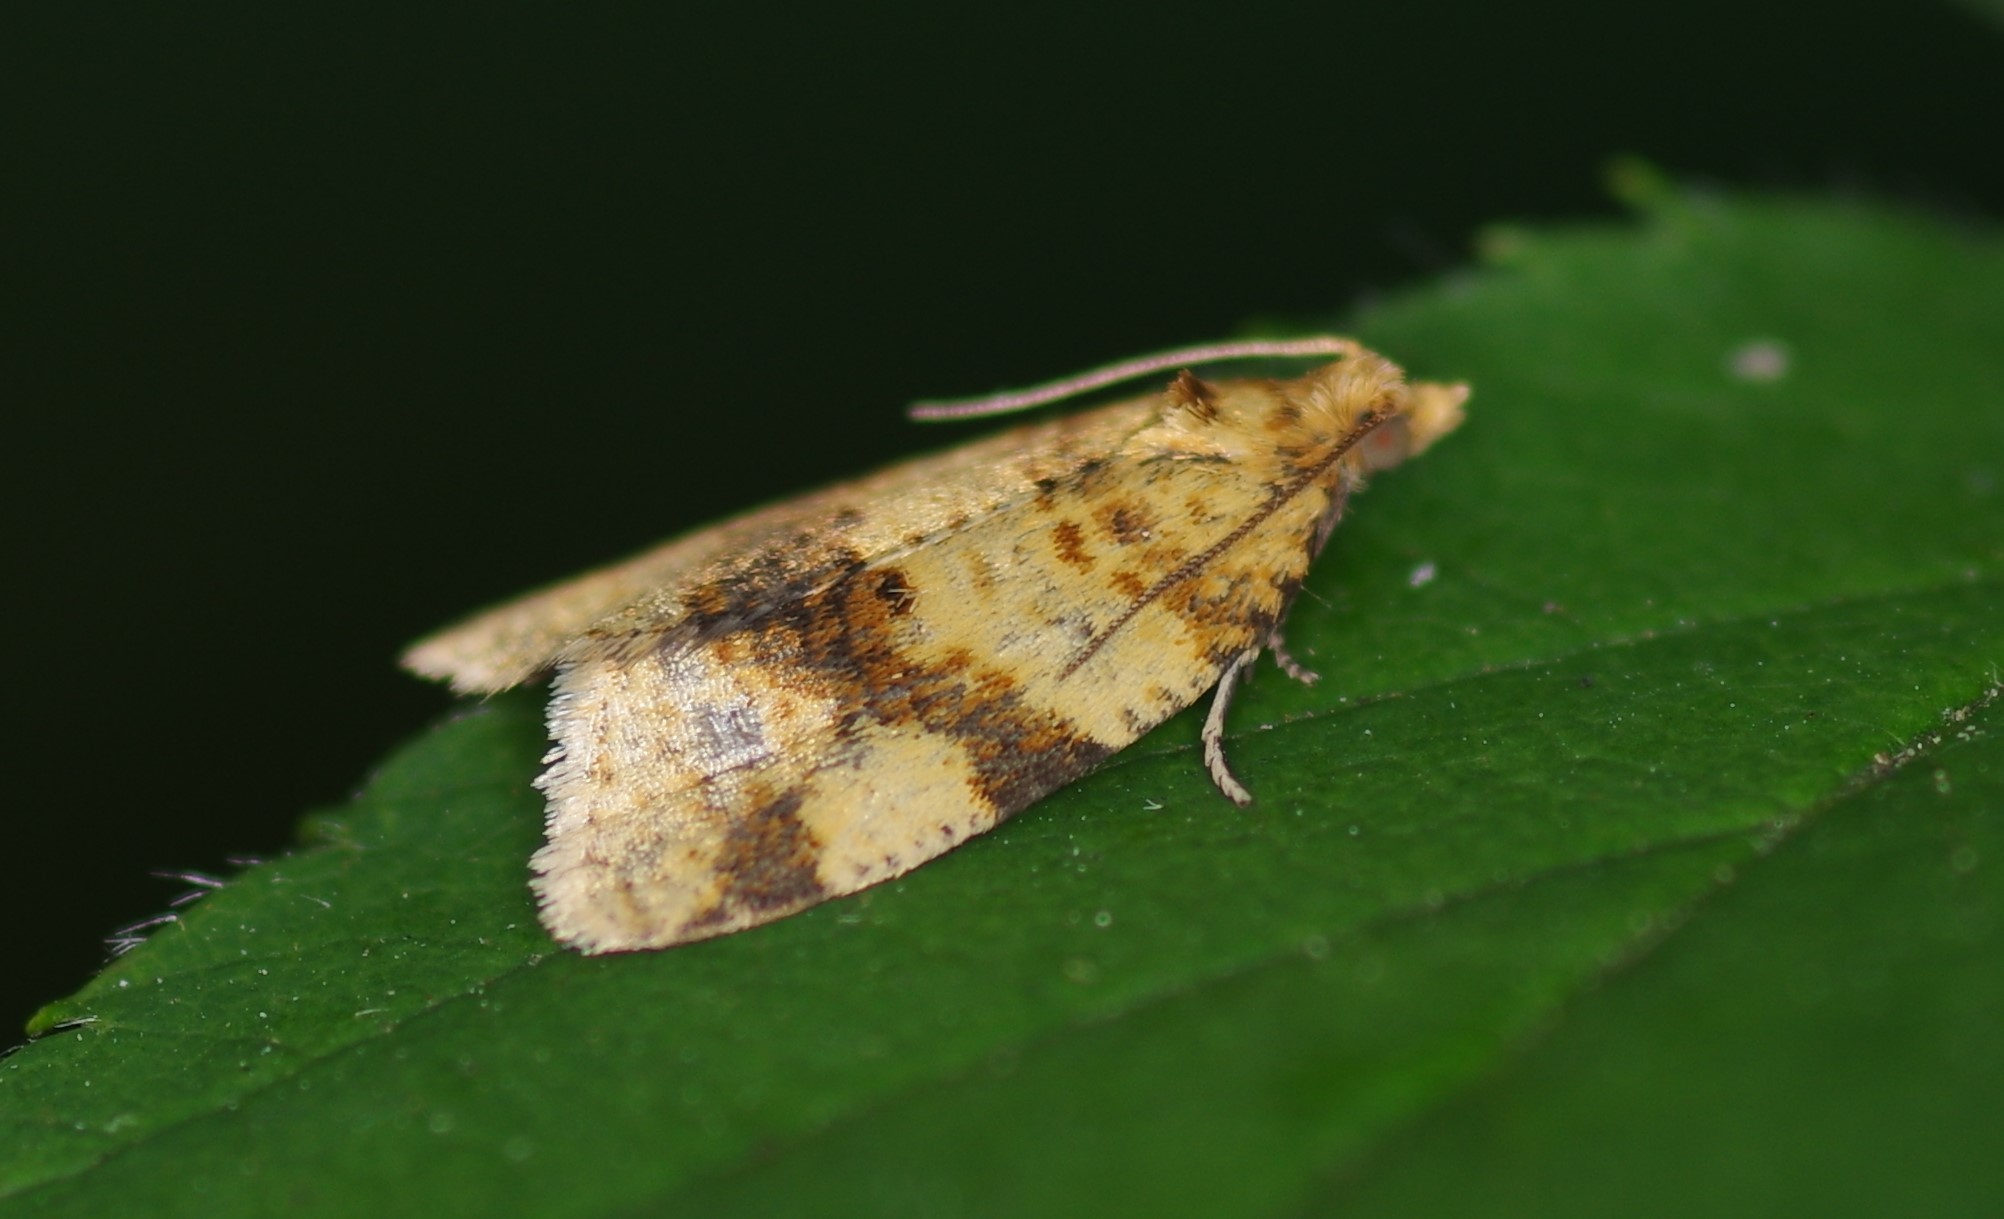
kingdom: Animalia
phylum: Arthropoda
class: Insecta
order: Lepidoptera
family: Tortricidae
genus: Epagoge
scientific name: Epagoge grotiana
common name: Brown-barred twist
